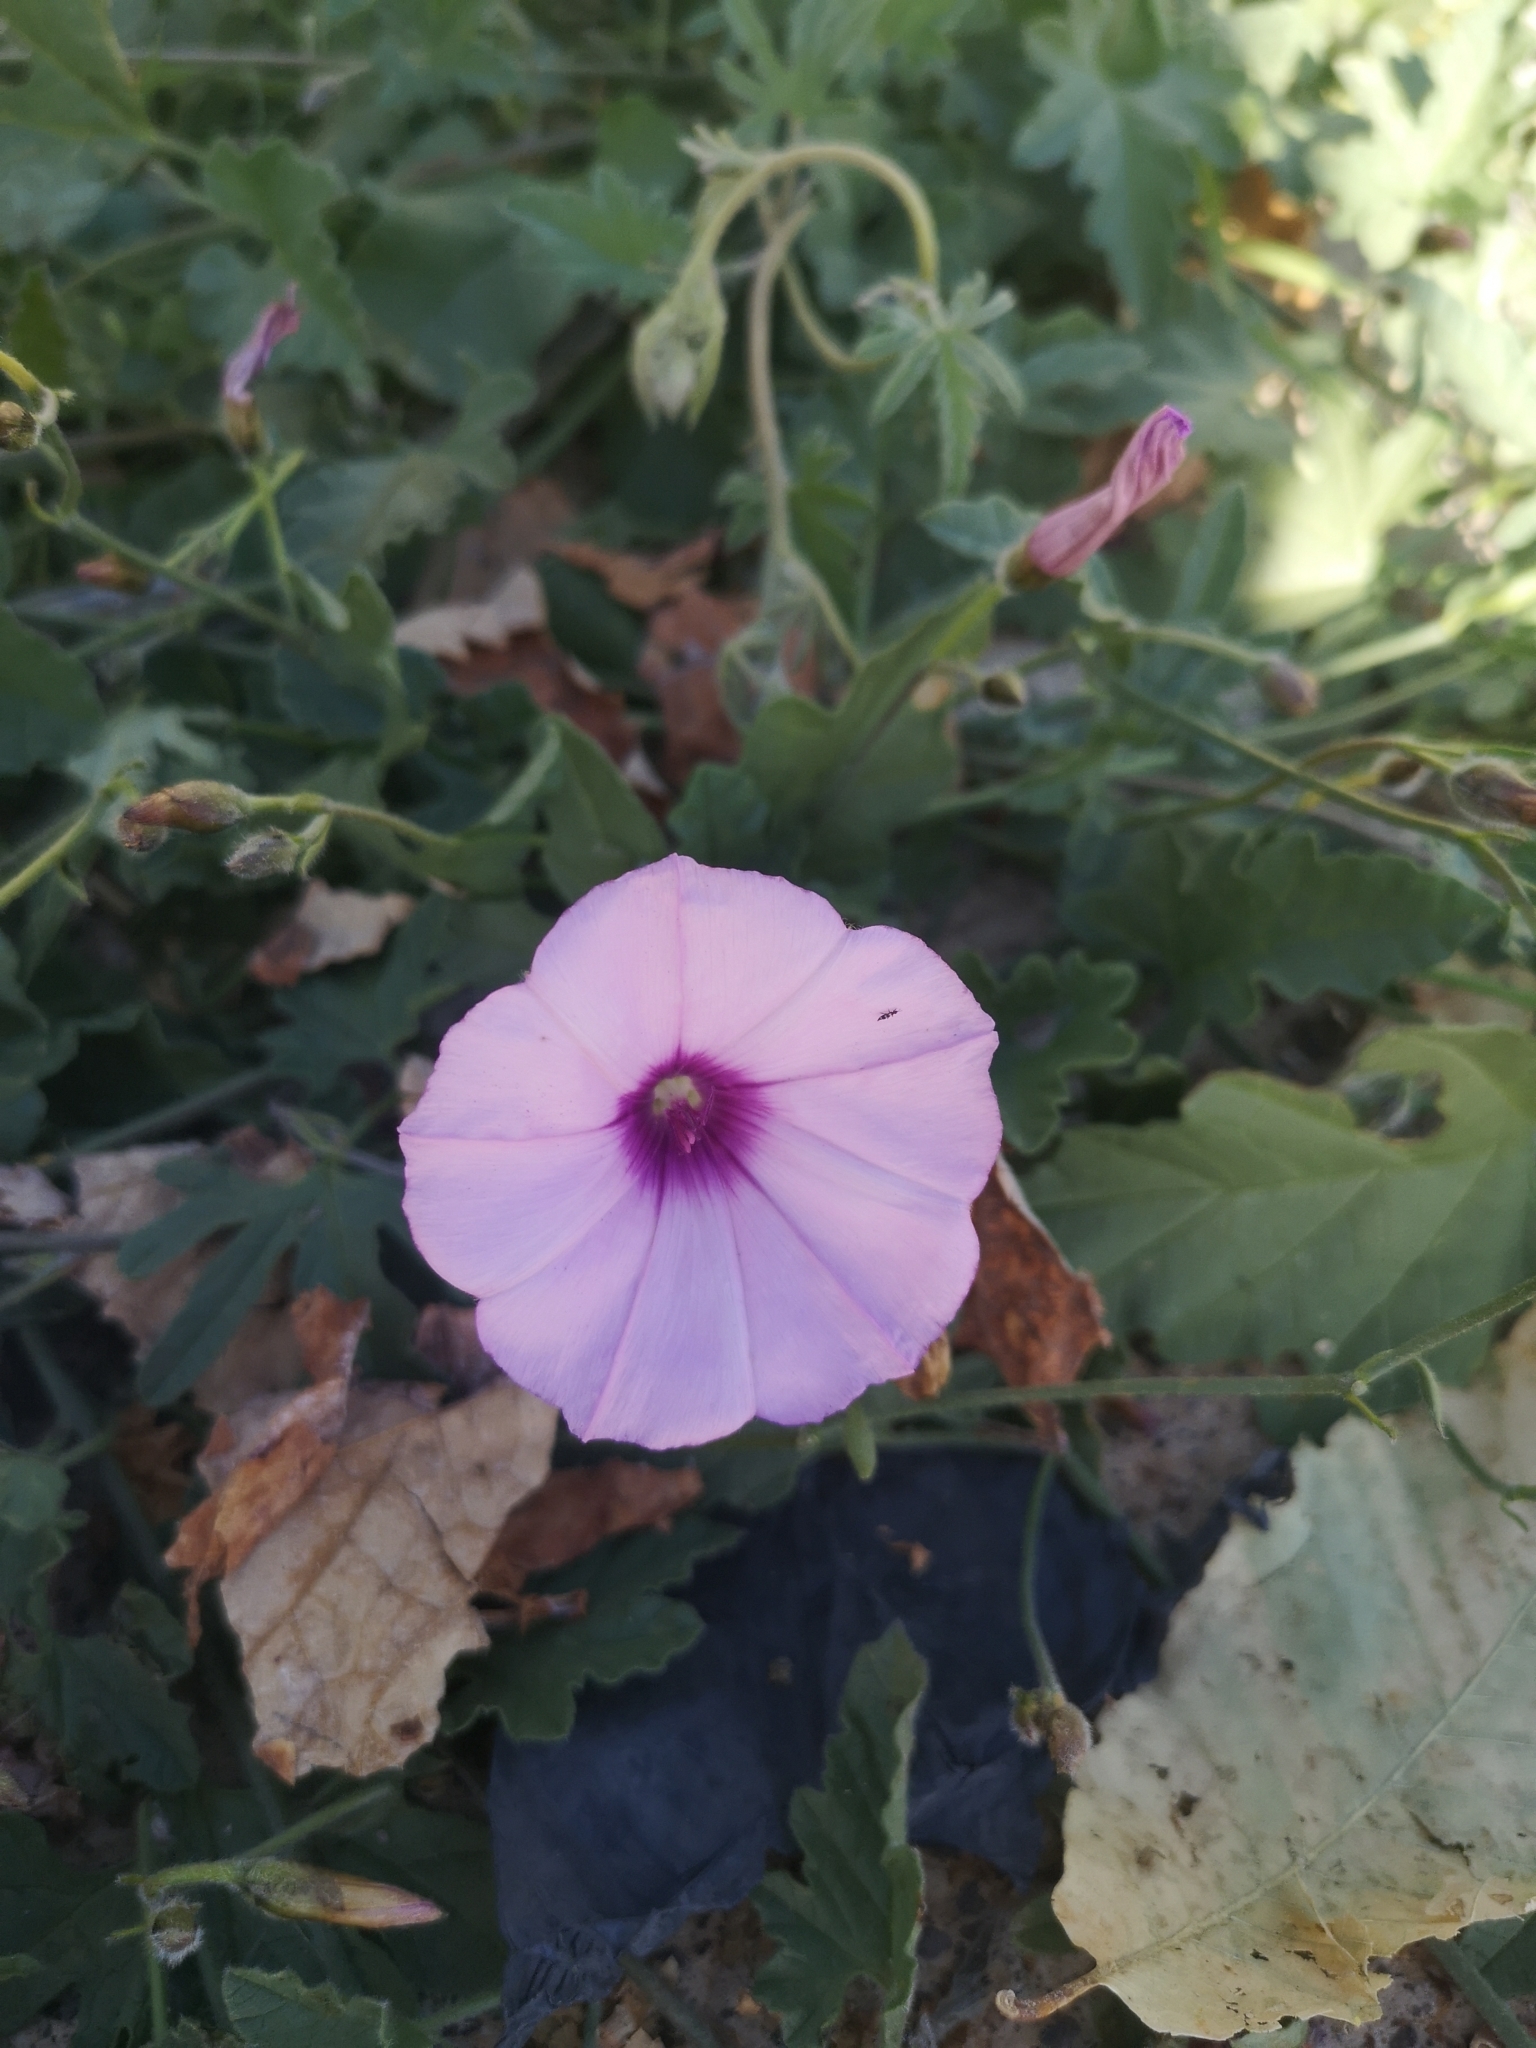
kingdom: Plantae
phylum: Tracheophyta
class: Magnoliopsida
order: Solanales
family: Convolvulaceae
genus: Convolvulus
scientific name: Convolvulus althaeoides
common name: Mallow bindweed
